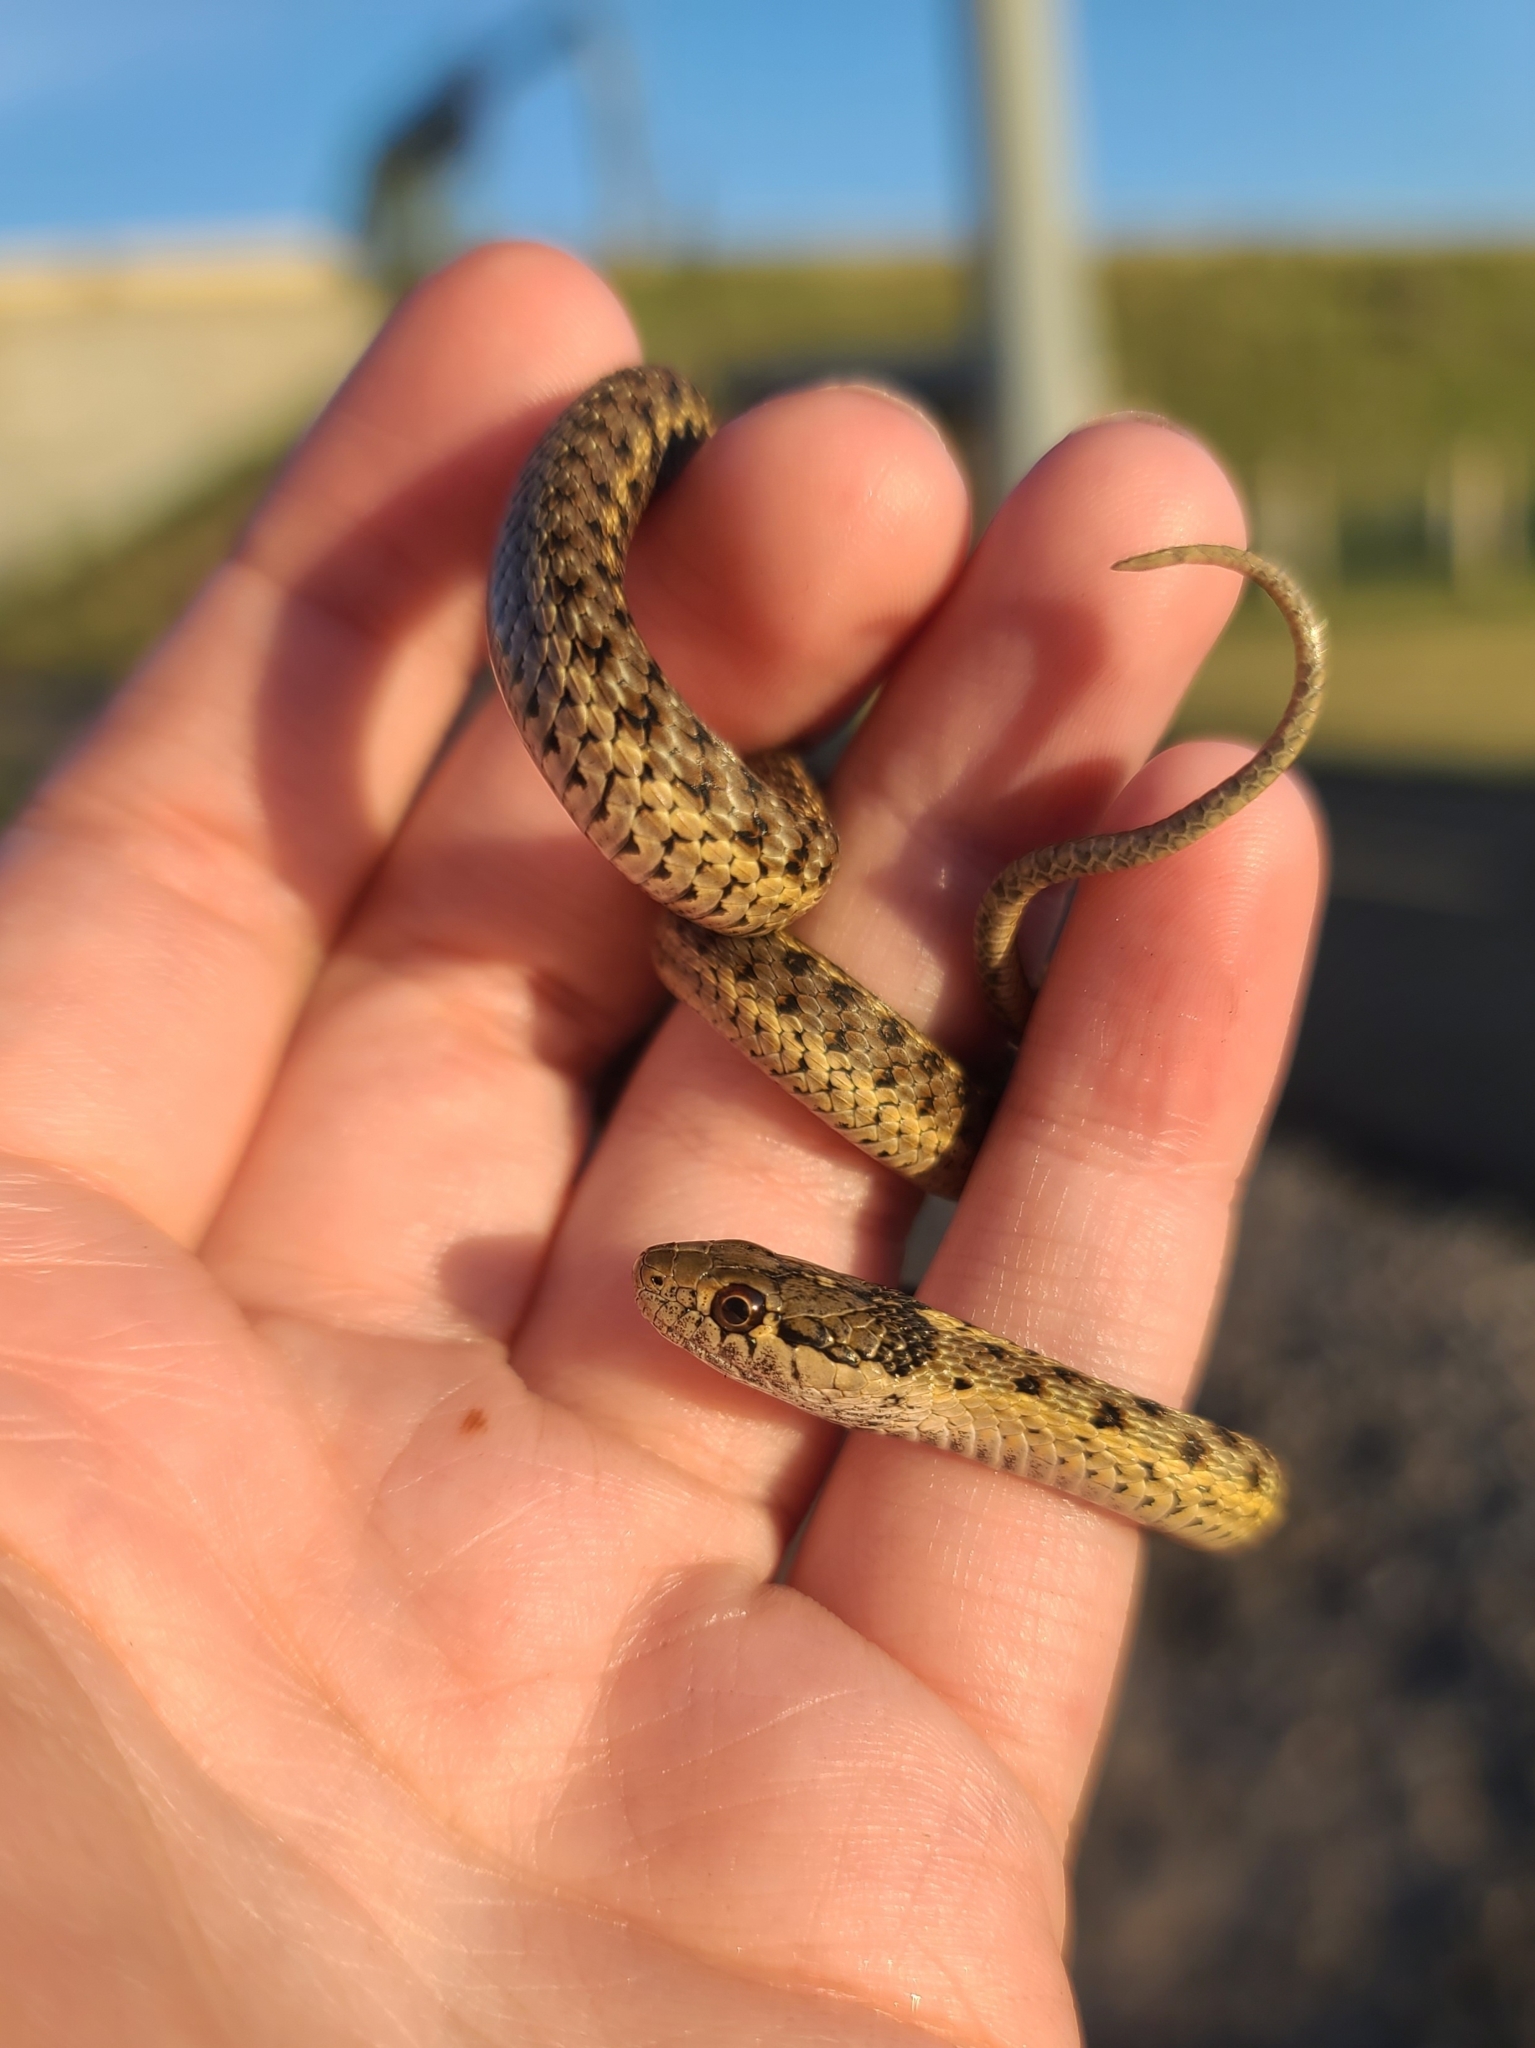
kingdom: Animalia
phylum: Chordata
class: Squamata
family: Colubridae
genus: Thamnophis
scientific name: Thamnophis elegans
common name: Western terrestrial garter snake
